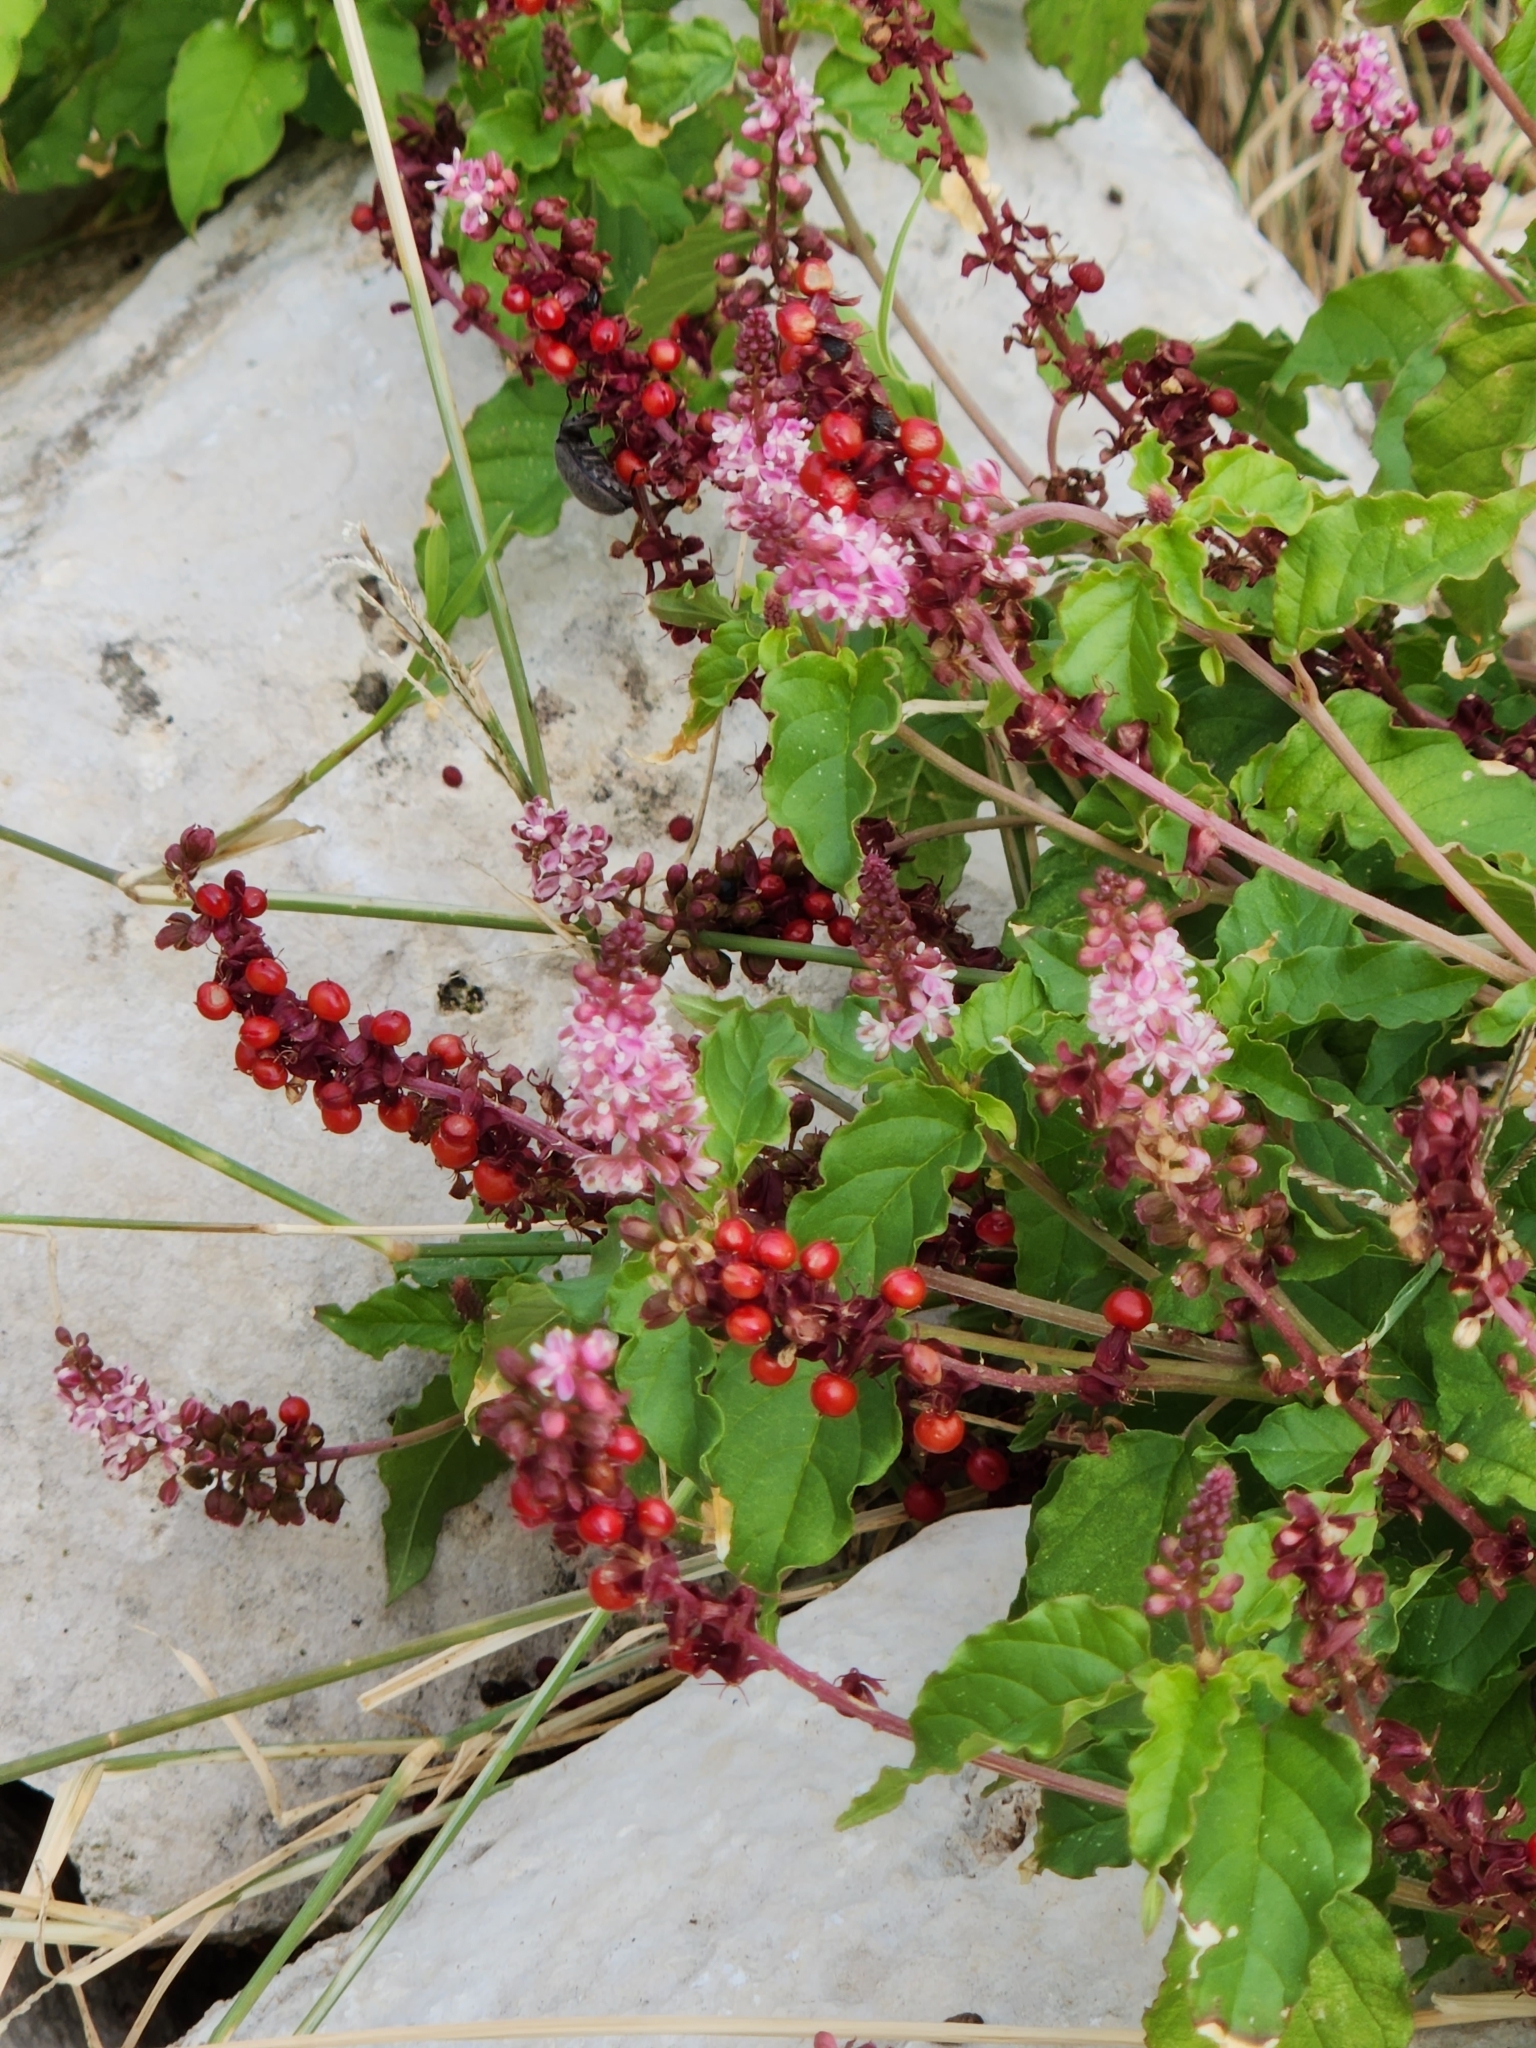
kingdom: Plantae
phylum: Tracheophyta
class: Magnoliopsida
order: Caryophyllales
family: Phytolaccaceae
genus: Rivina
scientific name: Rivina humilis
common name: Rougeplant
